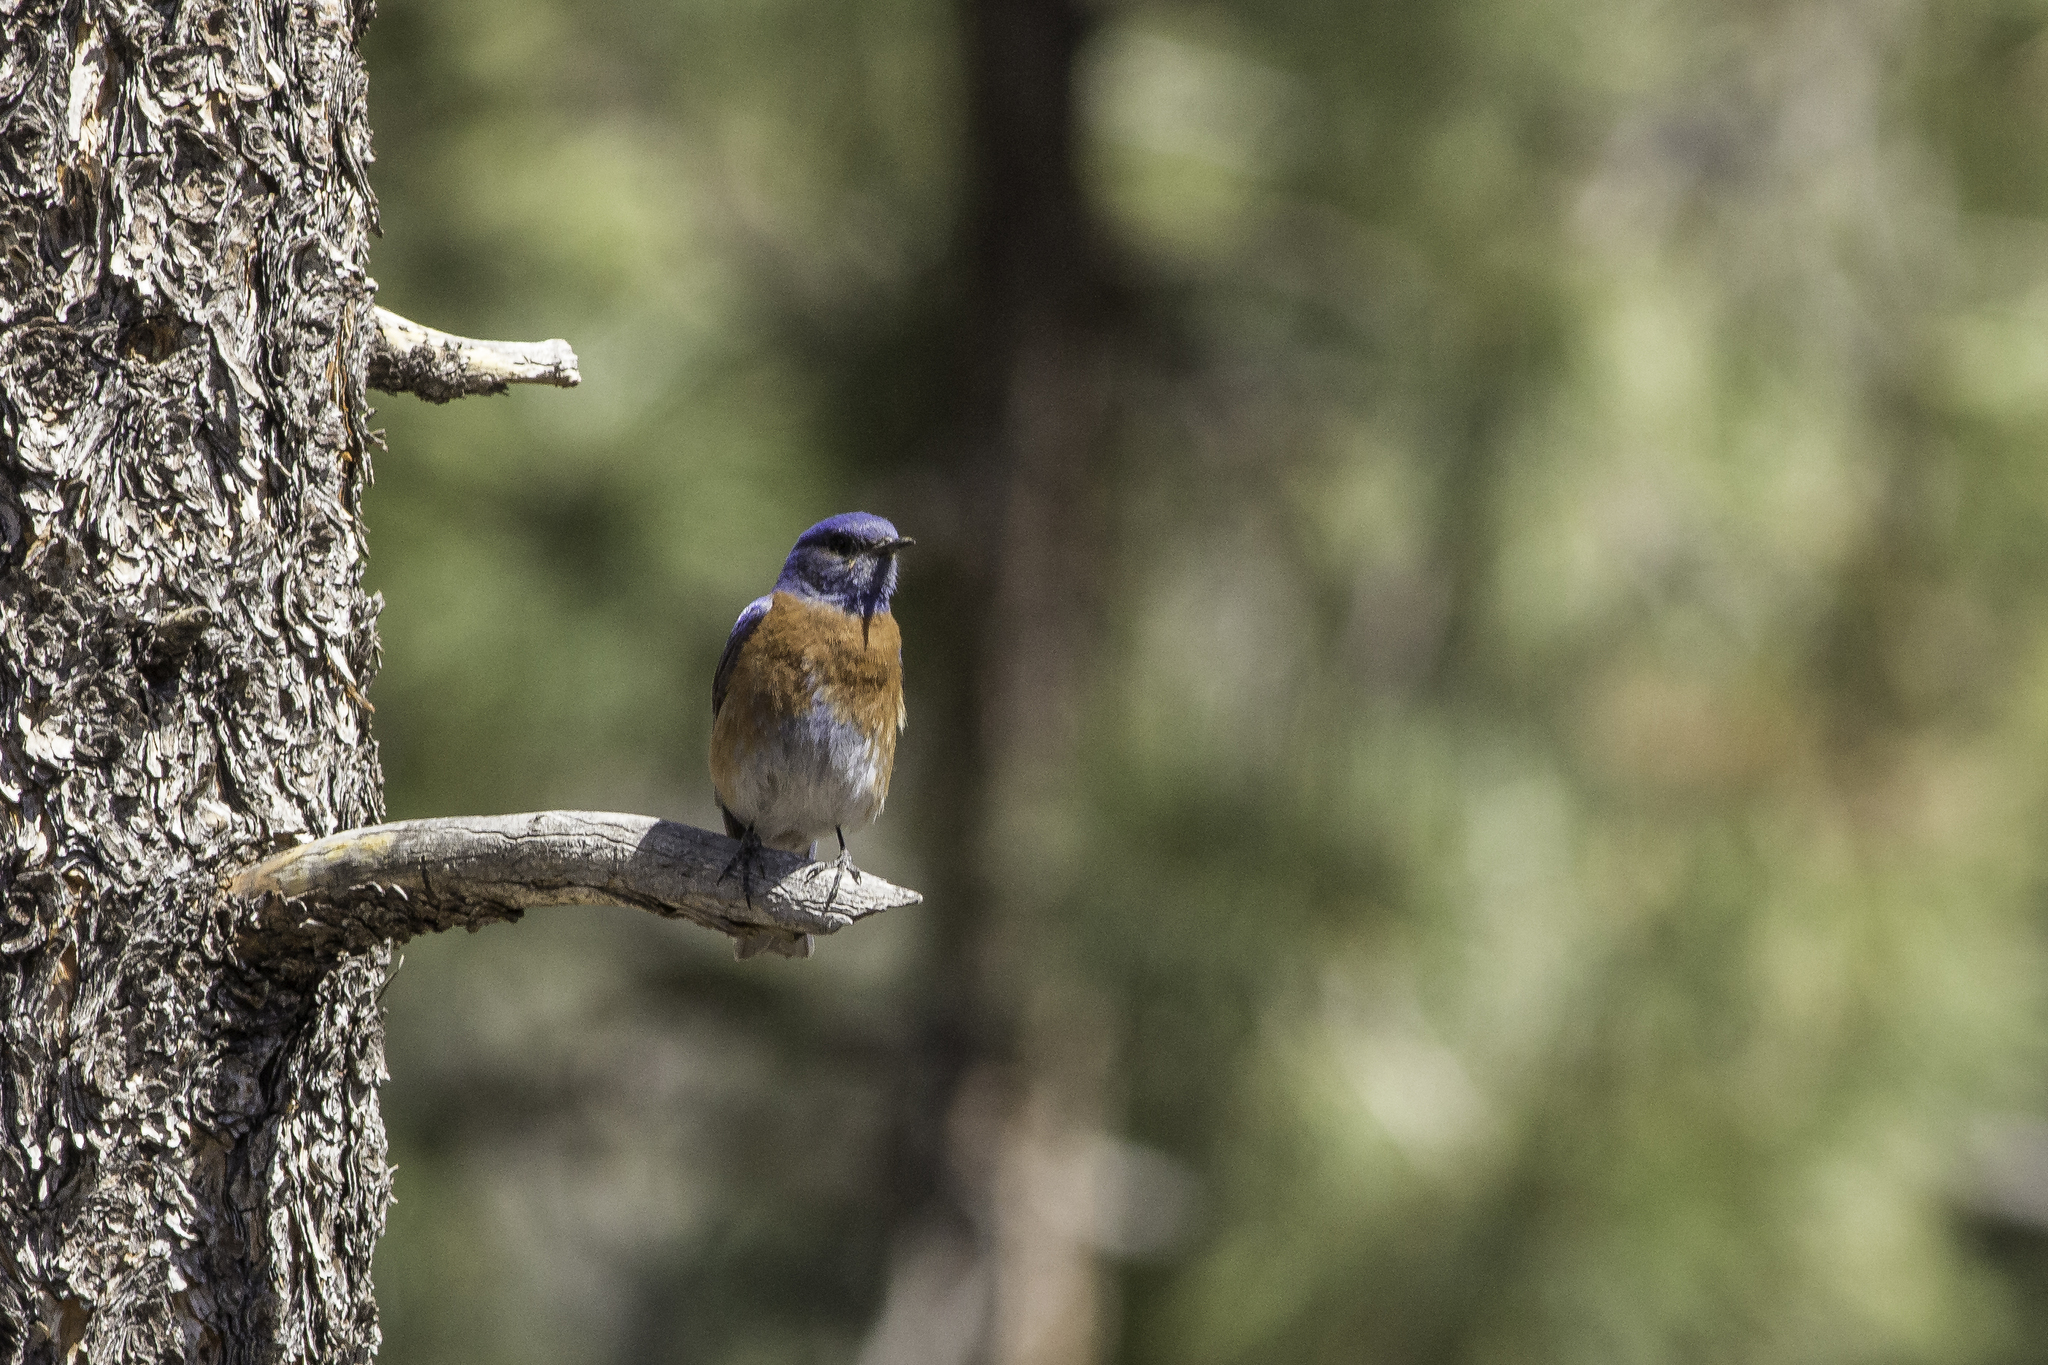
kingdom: Animalia
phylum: Chordata
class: Aves
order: Passeriformes
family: Turdidae
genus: Sialia
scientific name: Sialia mexicana
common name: Western bluebird
